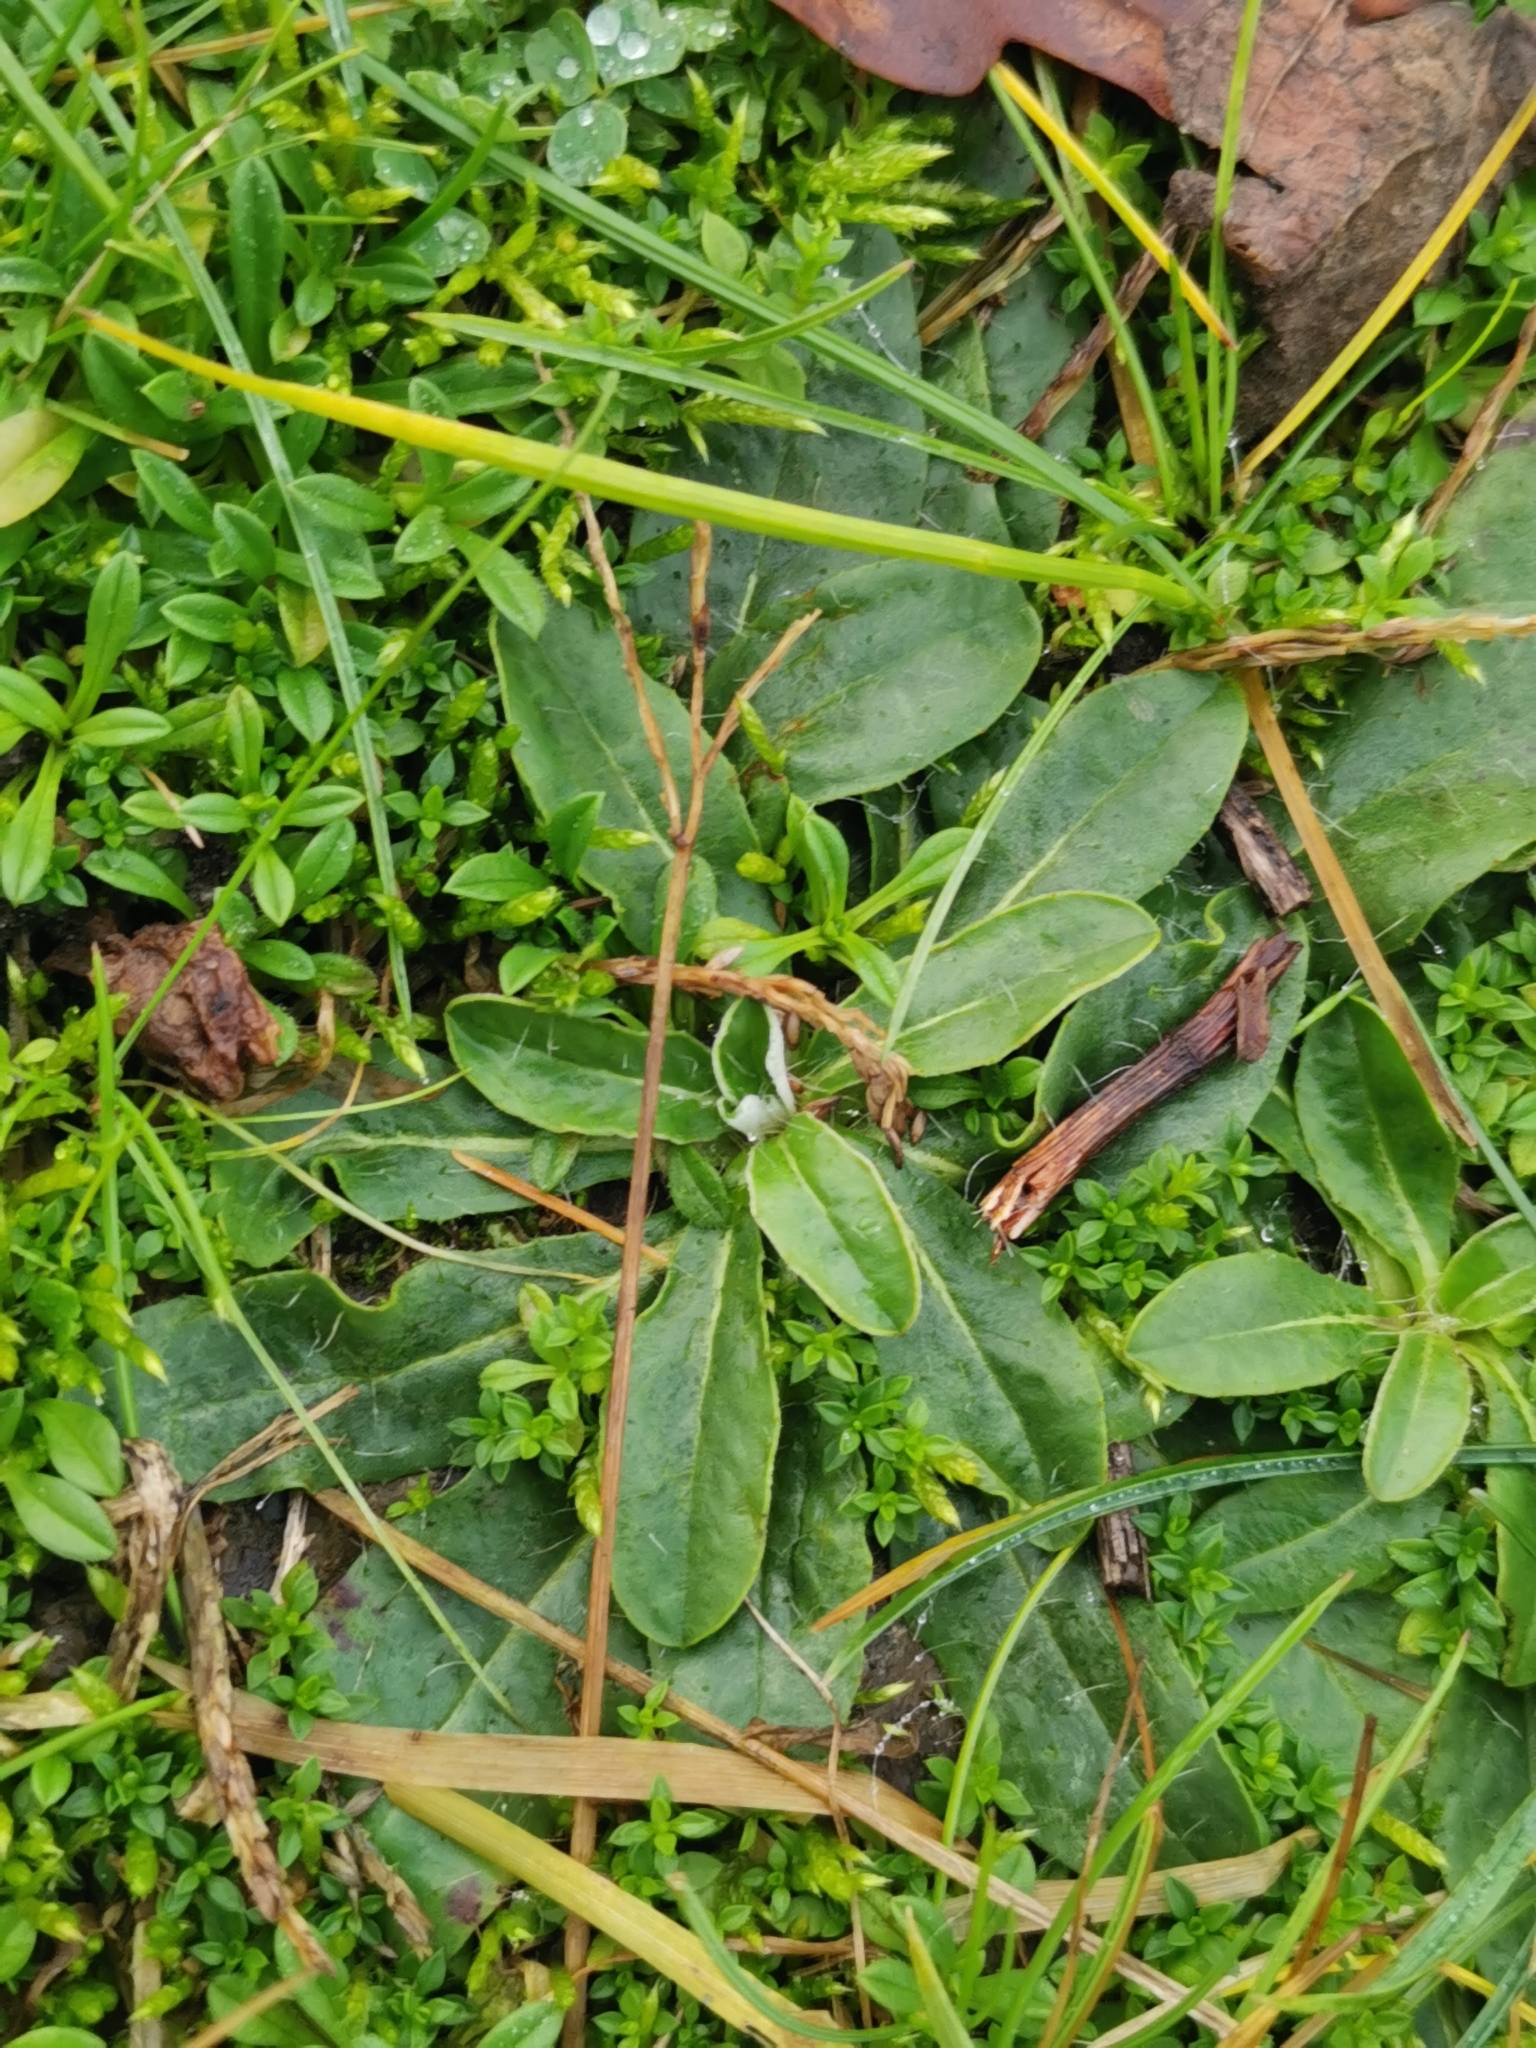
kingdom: Plantae
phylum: Tracheophyta
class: Magnoliopsida
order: Asterales
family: Asteraceae
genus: Pilosella
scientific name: Pilosella officinarum
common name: Mouse-ear hawkweed
